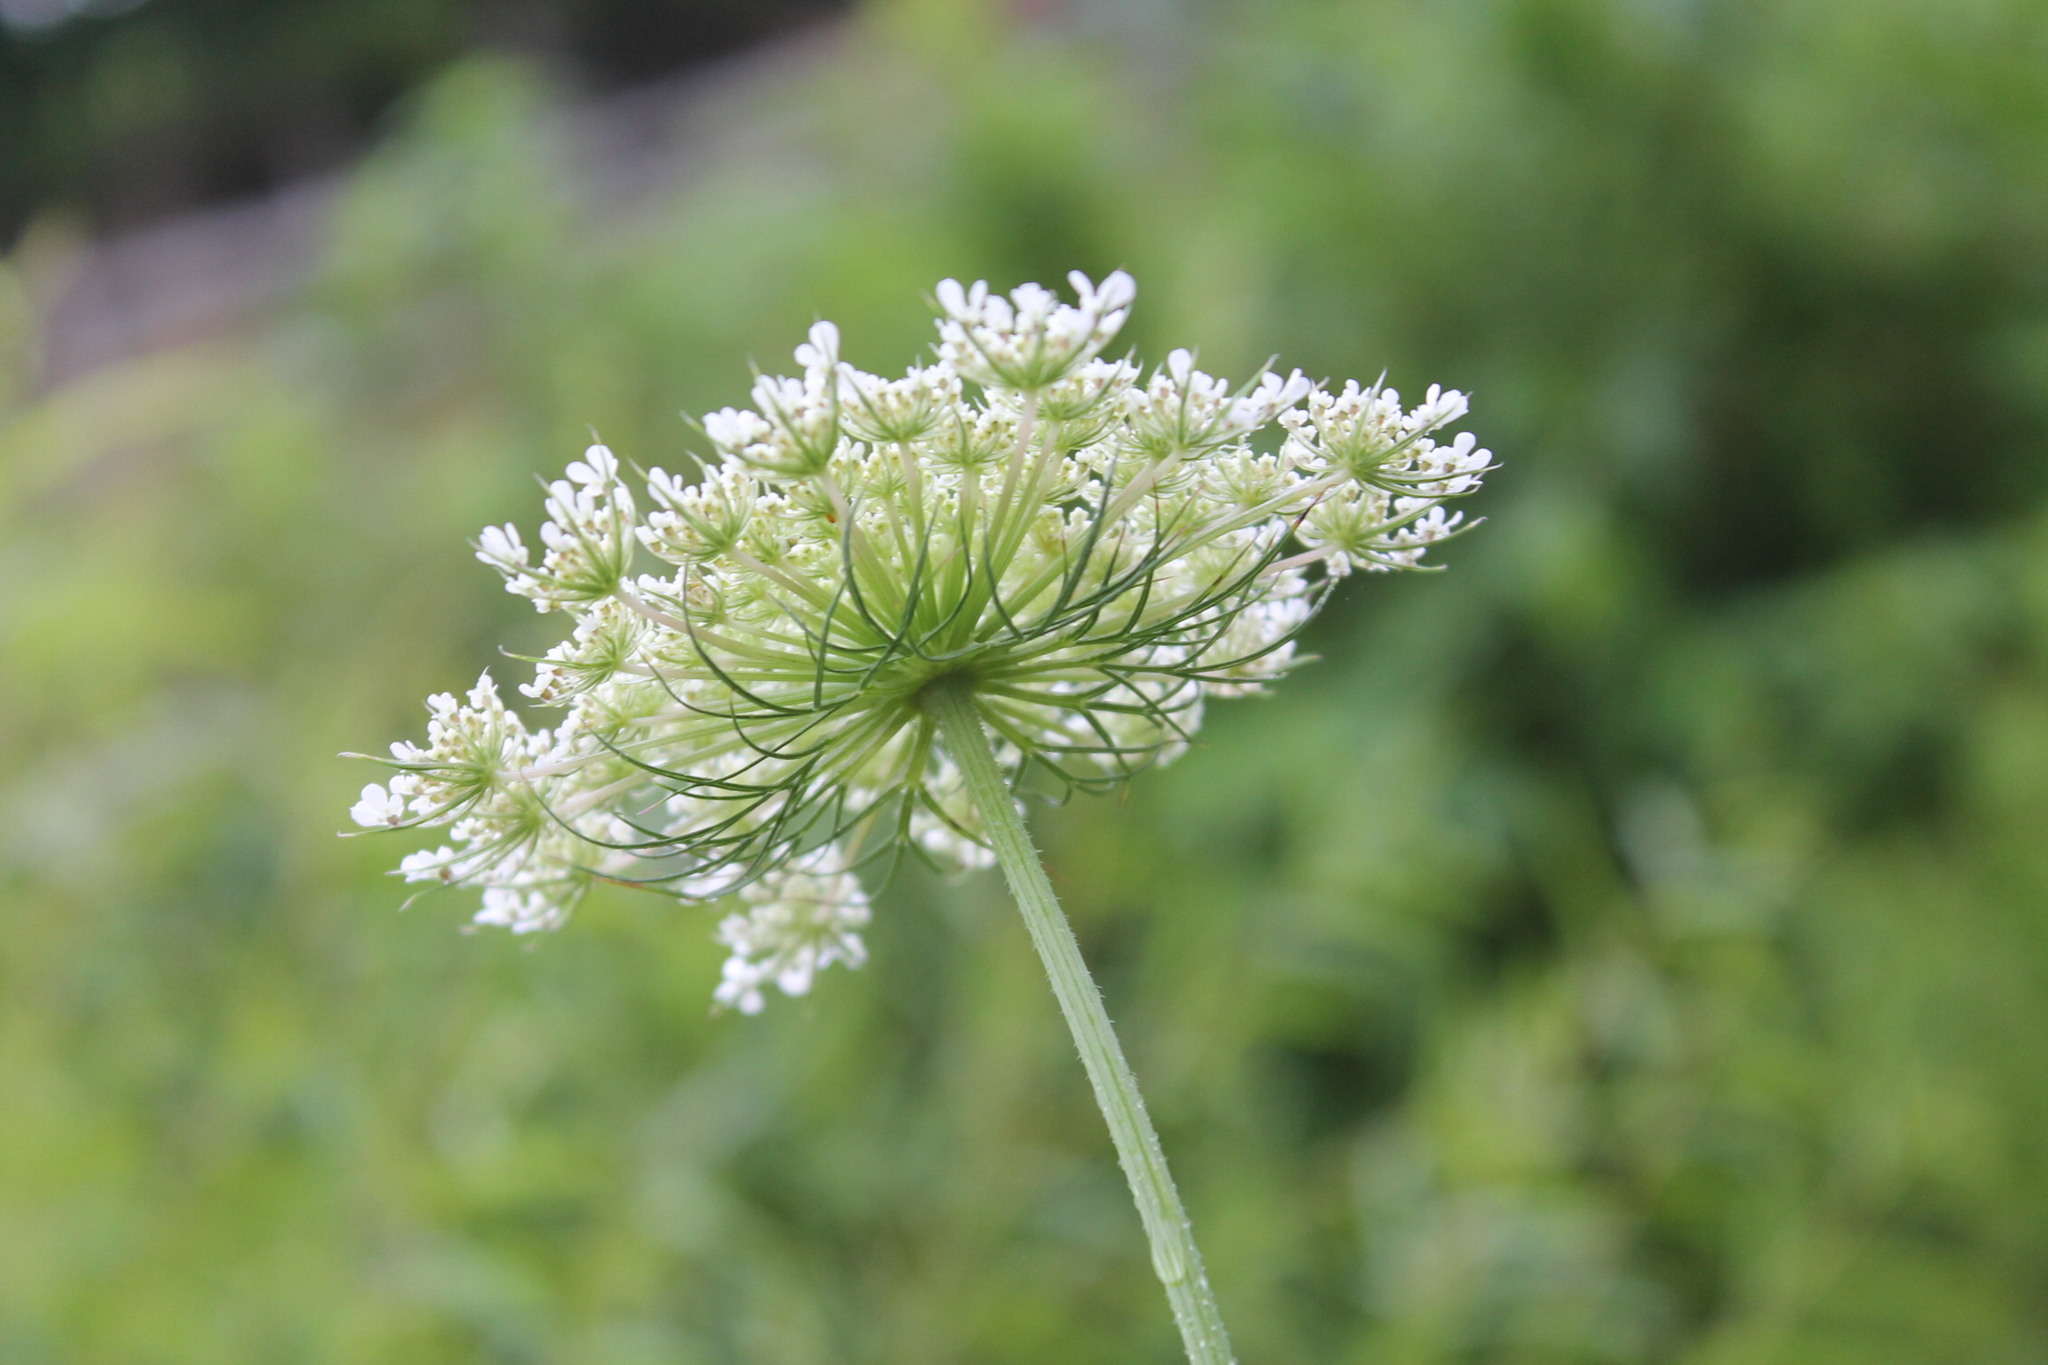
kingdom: Plantae
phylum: Tracheophyta
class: Magnoliopsida
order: Apiales
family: Apiaceae
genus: Daucus
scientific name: Daucus carota
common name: Wild carrot
